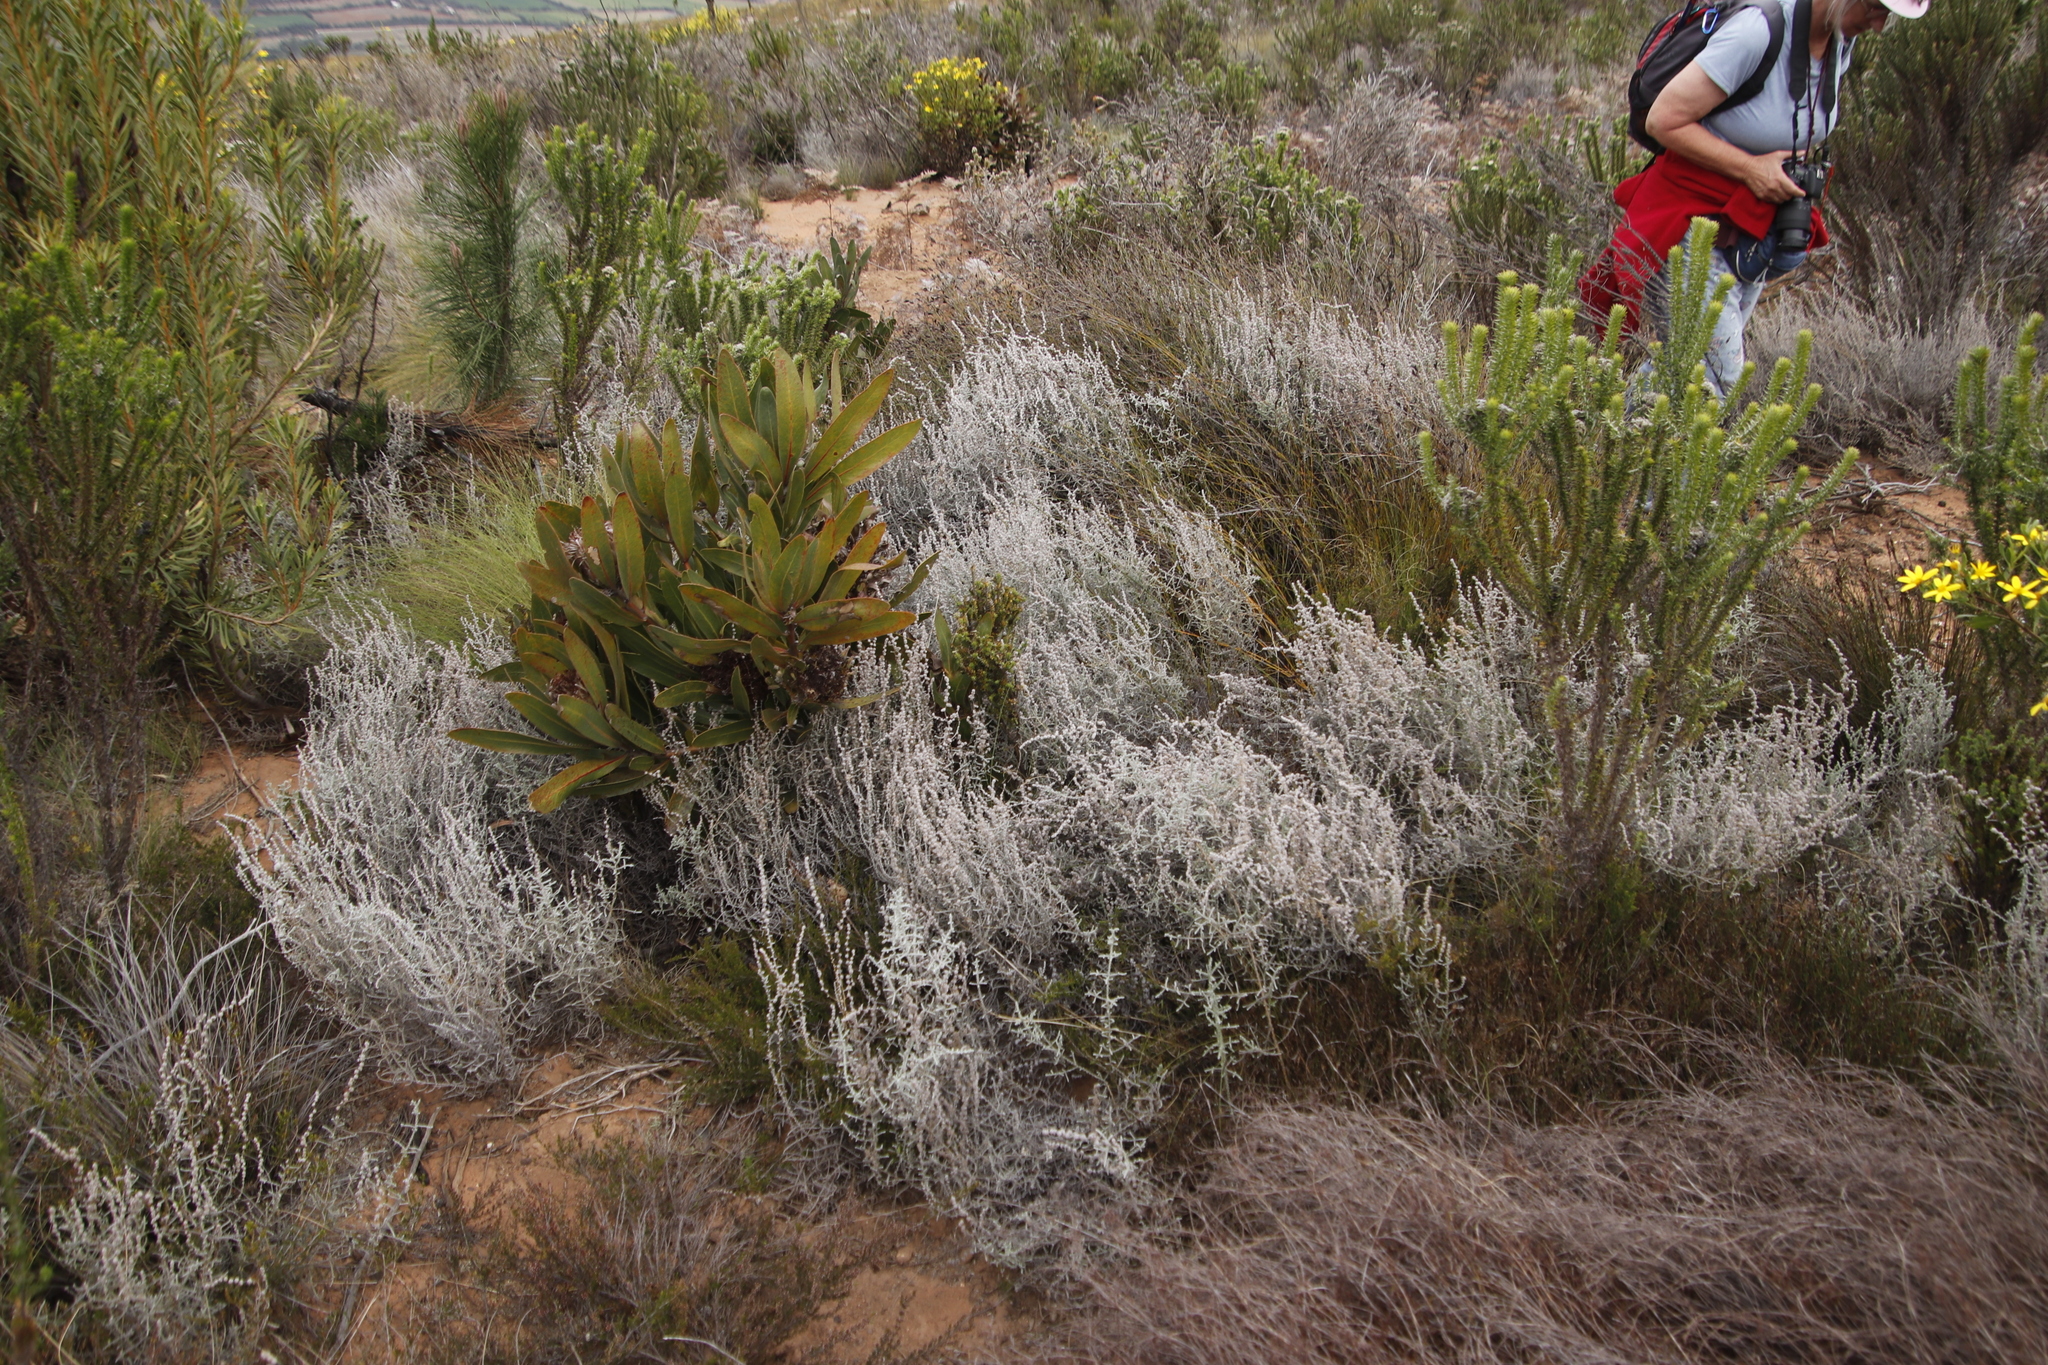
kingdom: Plantae
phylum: Tracheophyta
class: Magnoliopsida
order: Asterales
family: Asteraceae
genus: Seriphium
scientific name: Seriphium plumosum
